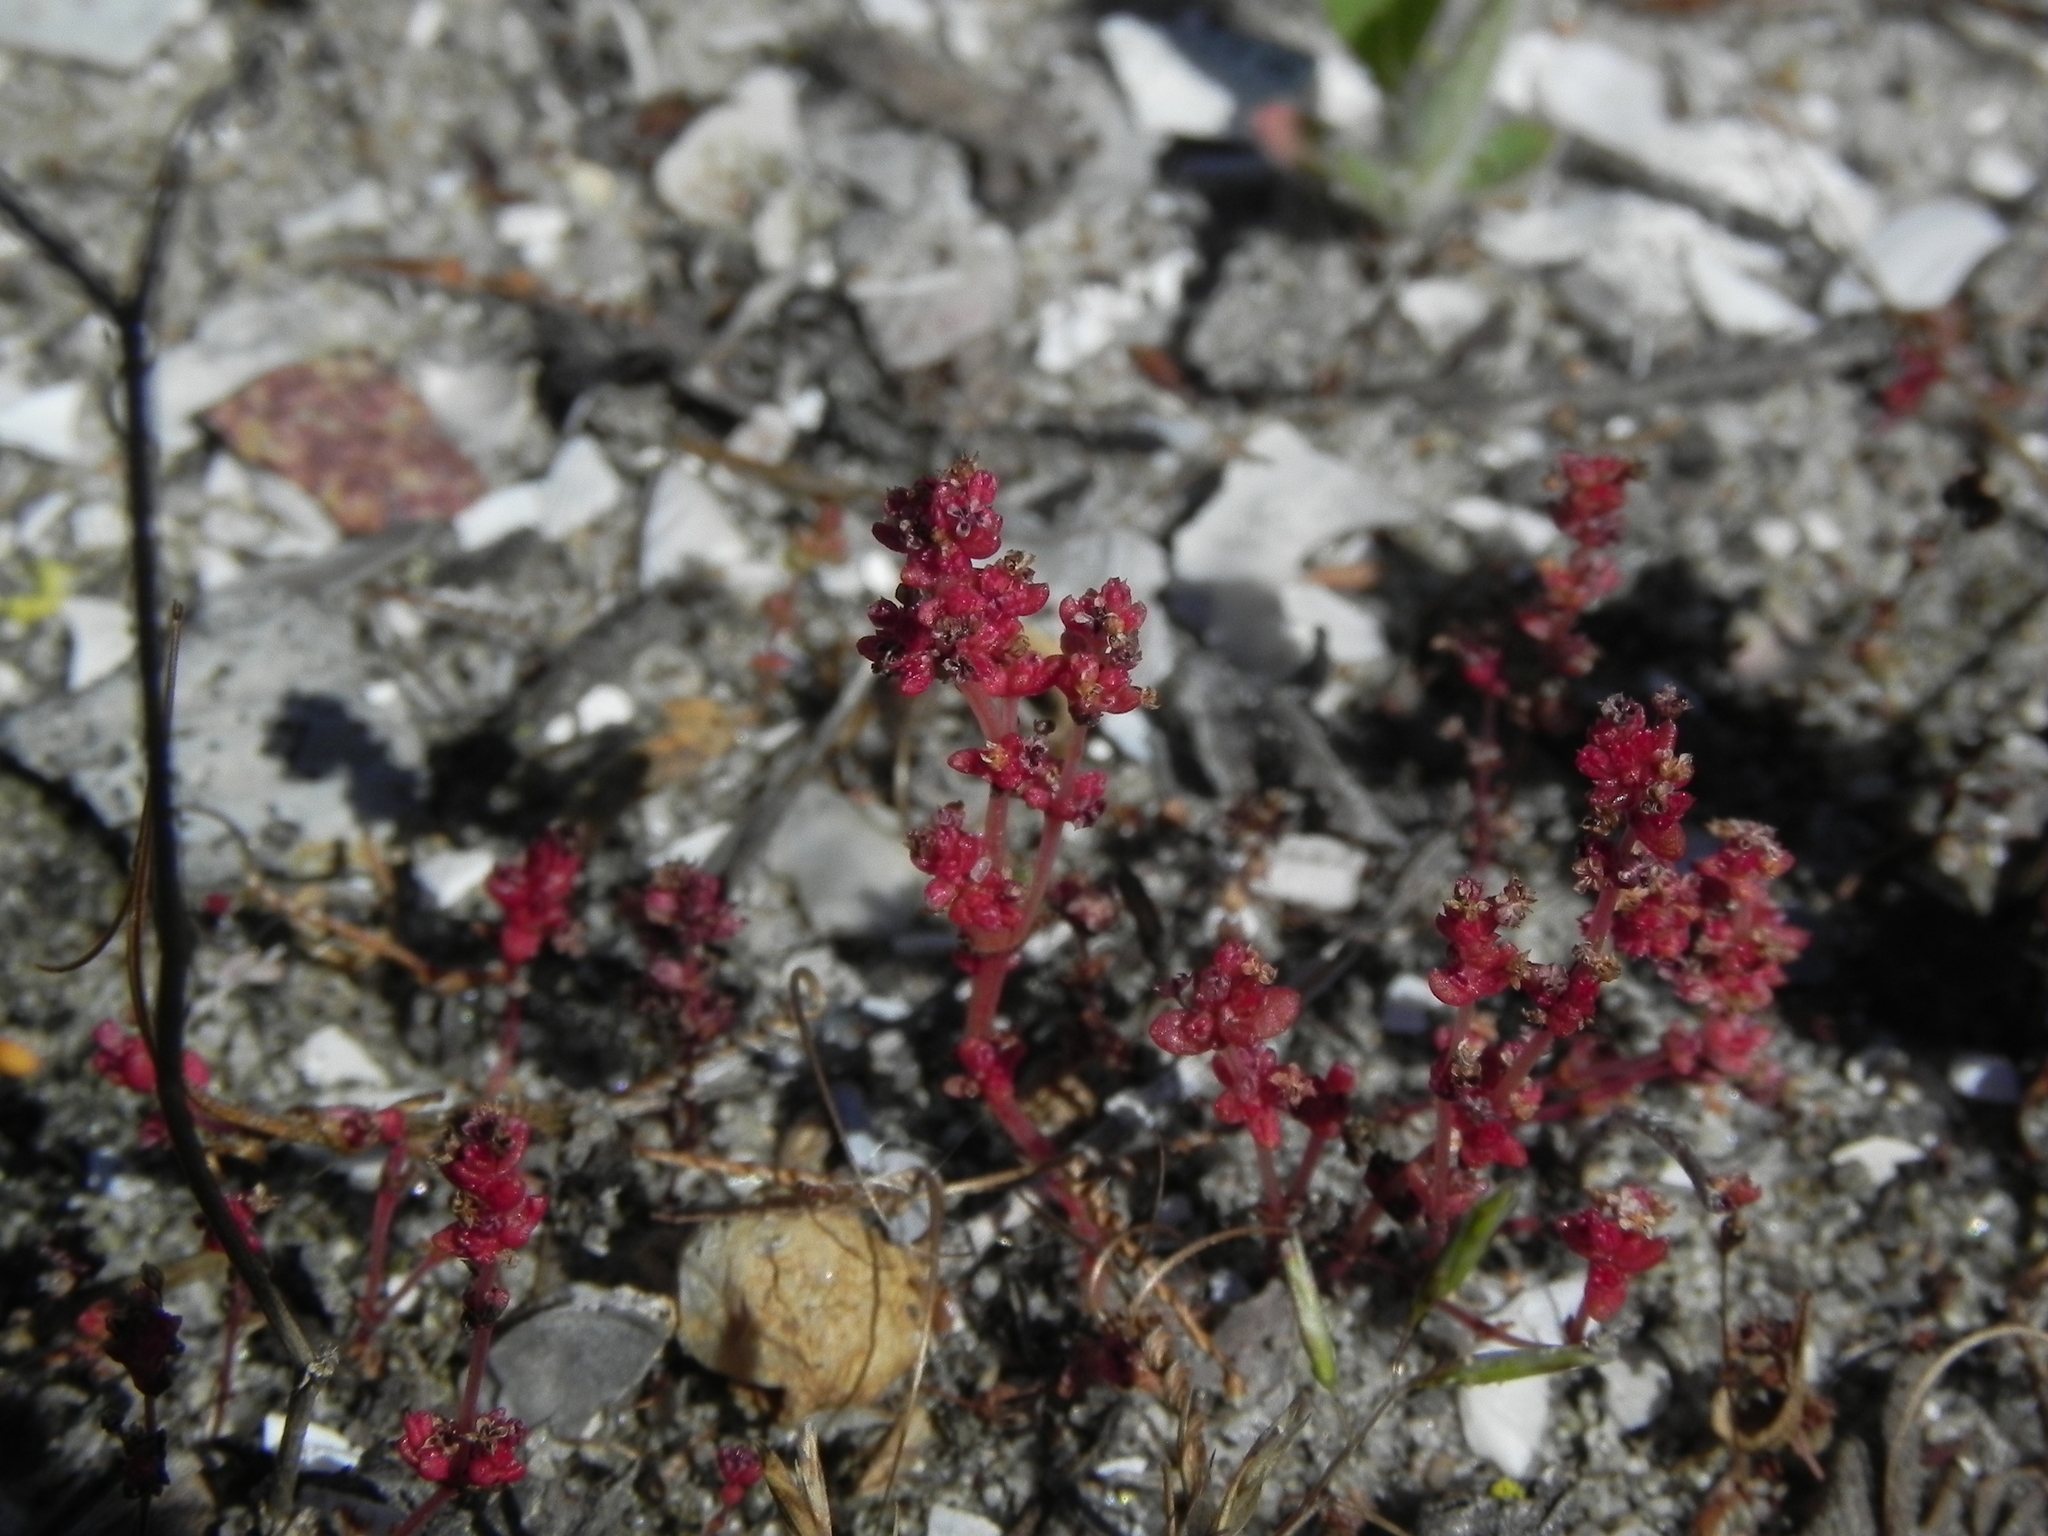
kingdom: Plantae
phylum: Tracheophyta
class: Magnoliopsida
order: Saxifragales
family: Crassulaceae
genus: Crassula
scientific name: Crassula connata
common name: Erect pygmyweed
